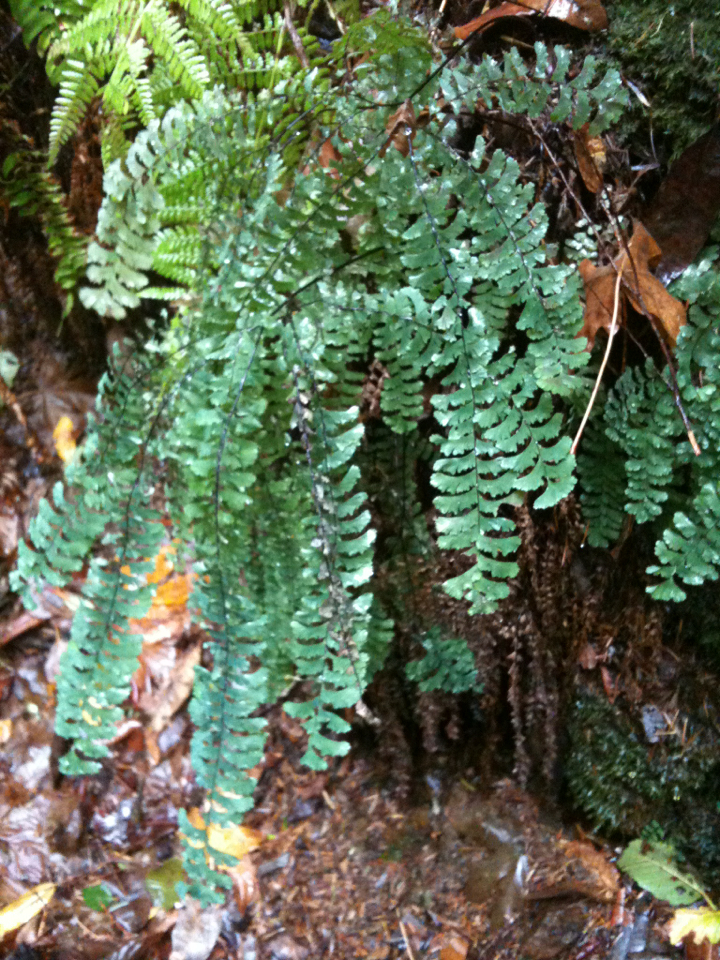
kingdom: Plantae
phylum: Tracheophyta
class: Polypodiopsida
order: Polypodiales
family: Pteridaceae
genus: Adiantum
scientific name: Adiantum aleuticum
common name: Aleutian maidenhair fern
